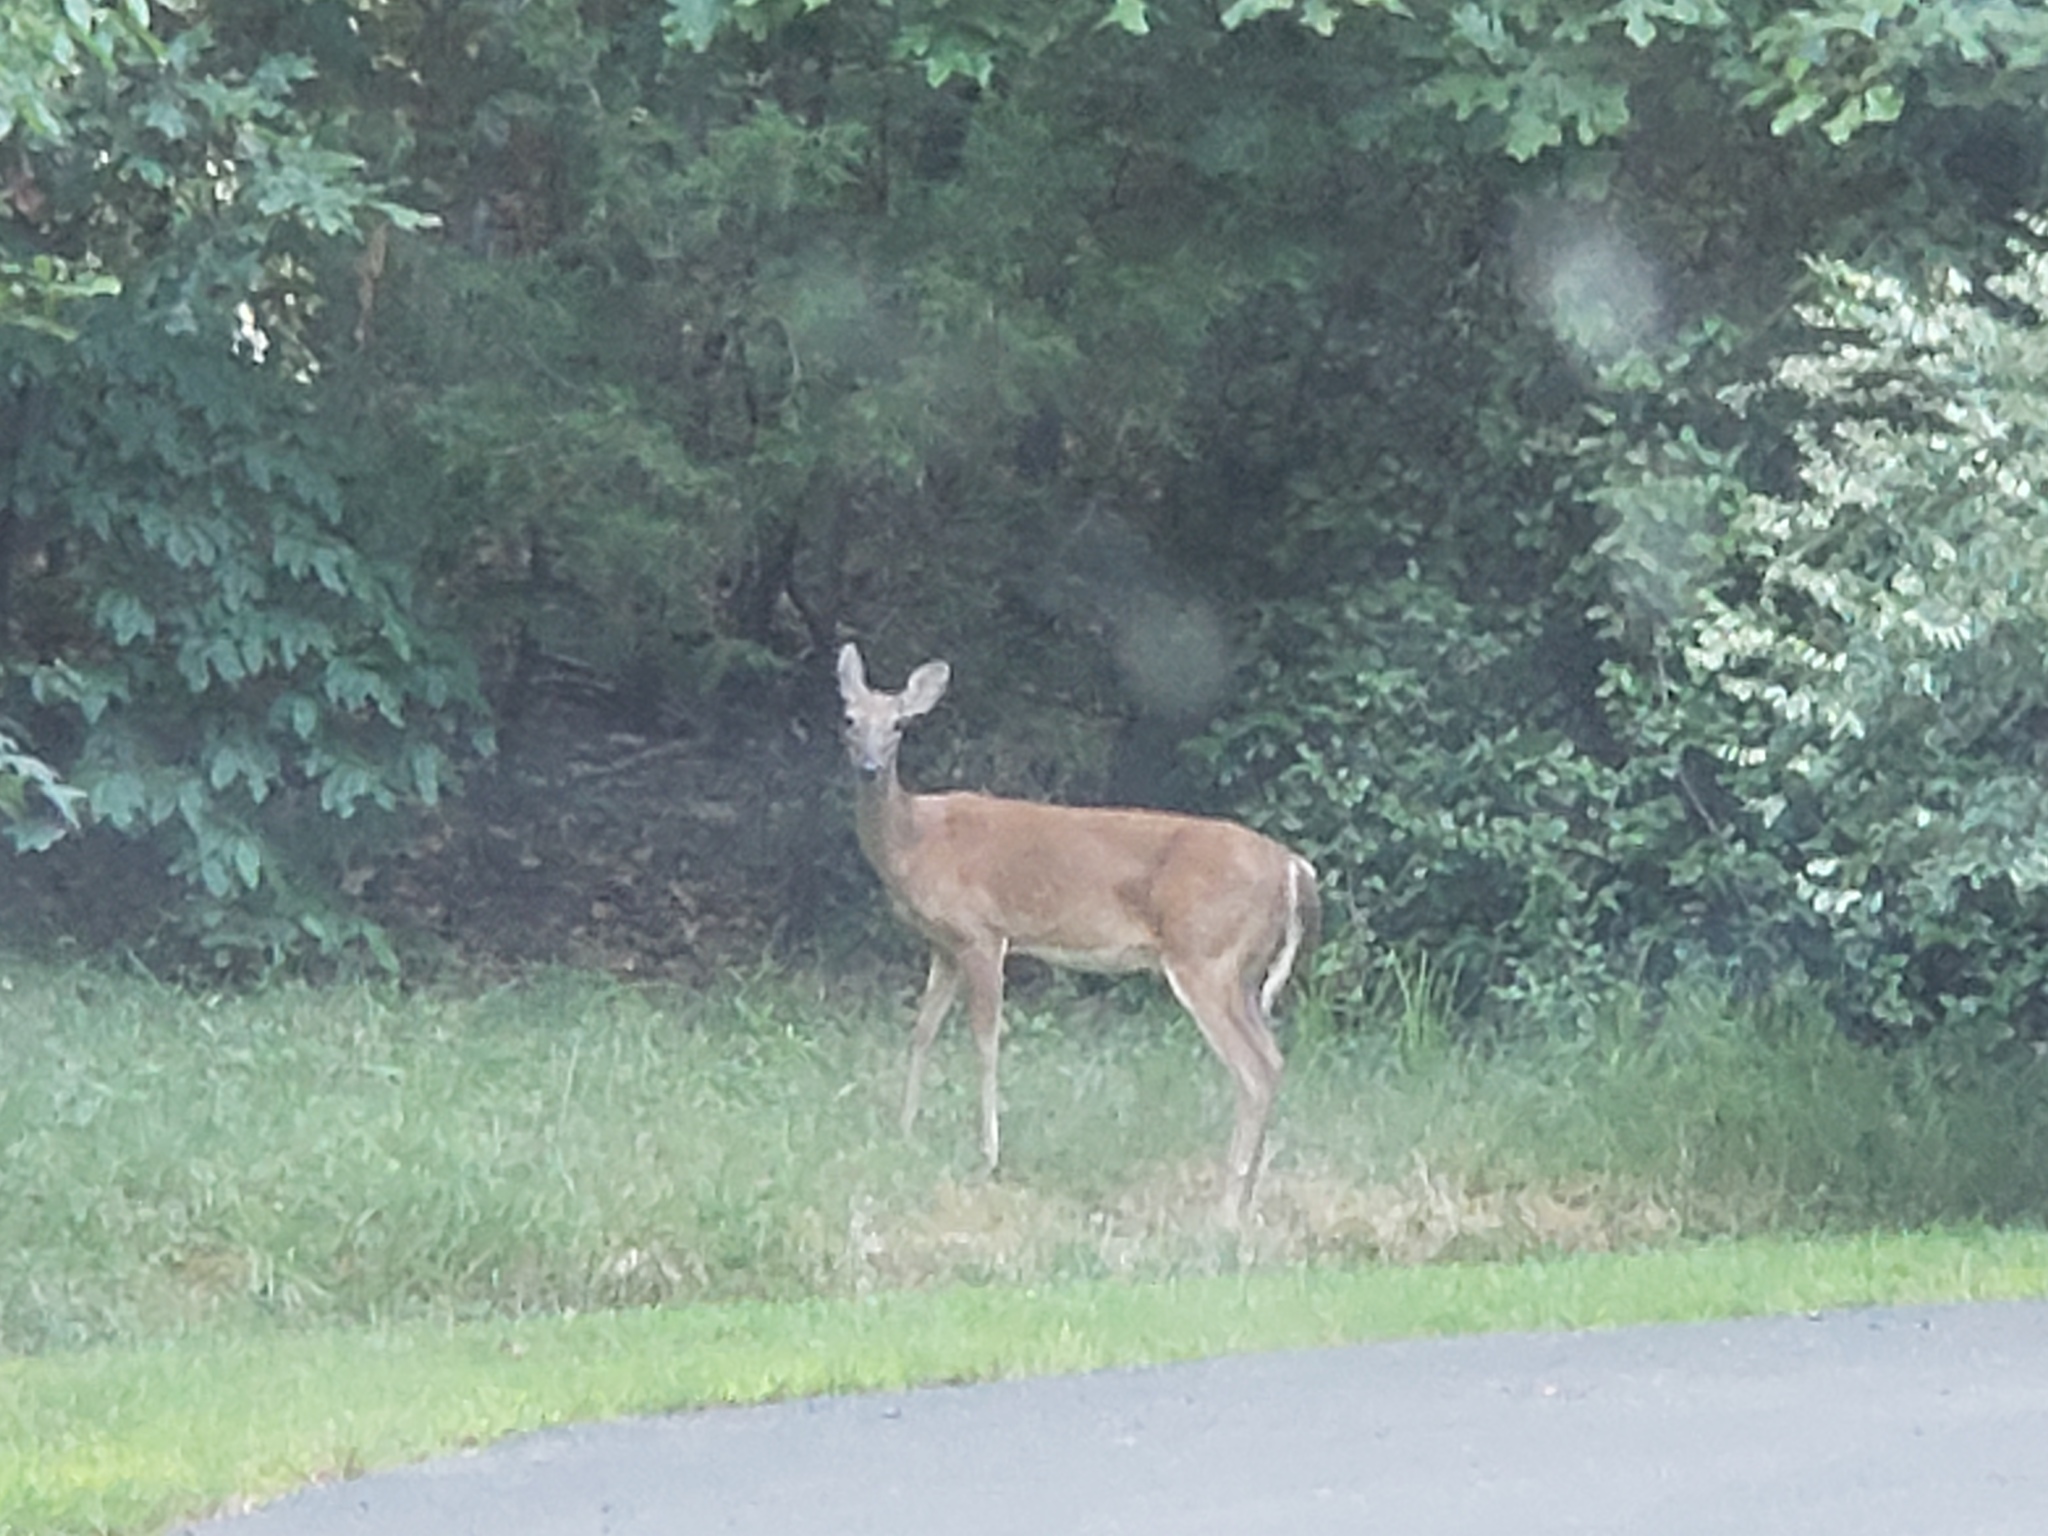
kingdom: Animalia
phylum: Chordata
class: Mammalia
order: Artiodactyla
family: Cervidae
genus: Odocoileus
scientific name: Odocoileus virginianus
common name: White-tailed deer
